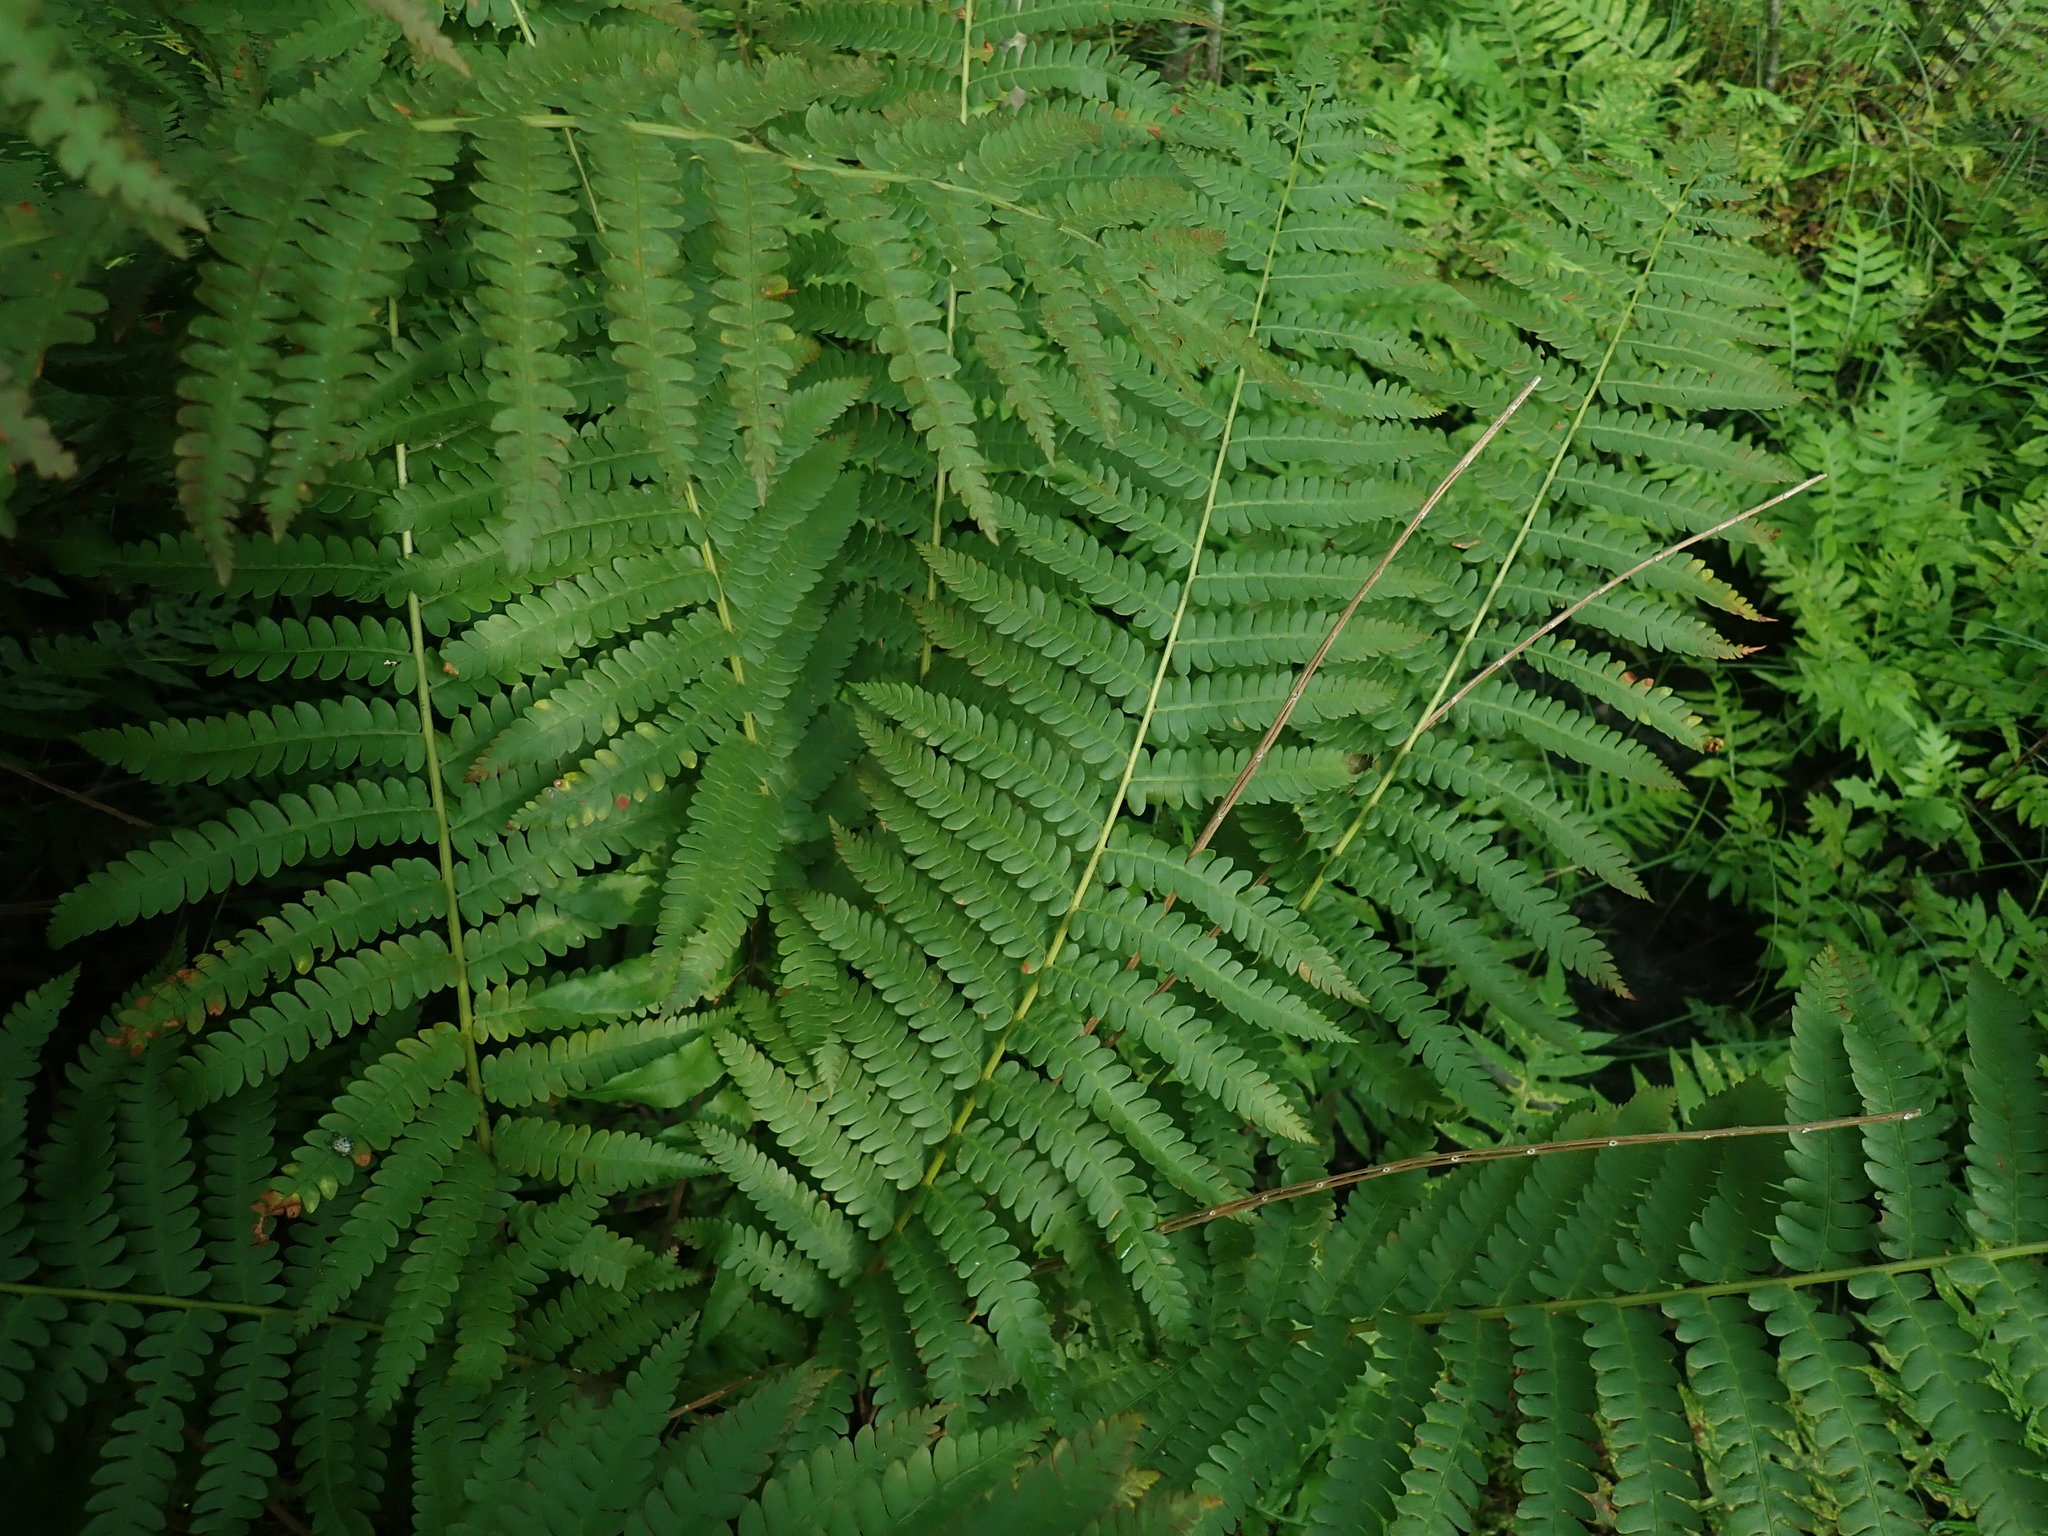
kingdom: Plantae
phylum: Tracheophyta
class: Polypodiopsida
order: Osmundales
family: Osmundaceae
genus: Osmundastrum
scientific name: Osmundastrum cinnamomeum
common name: Cinnamon fern
